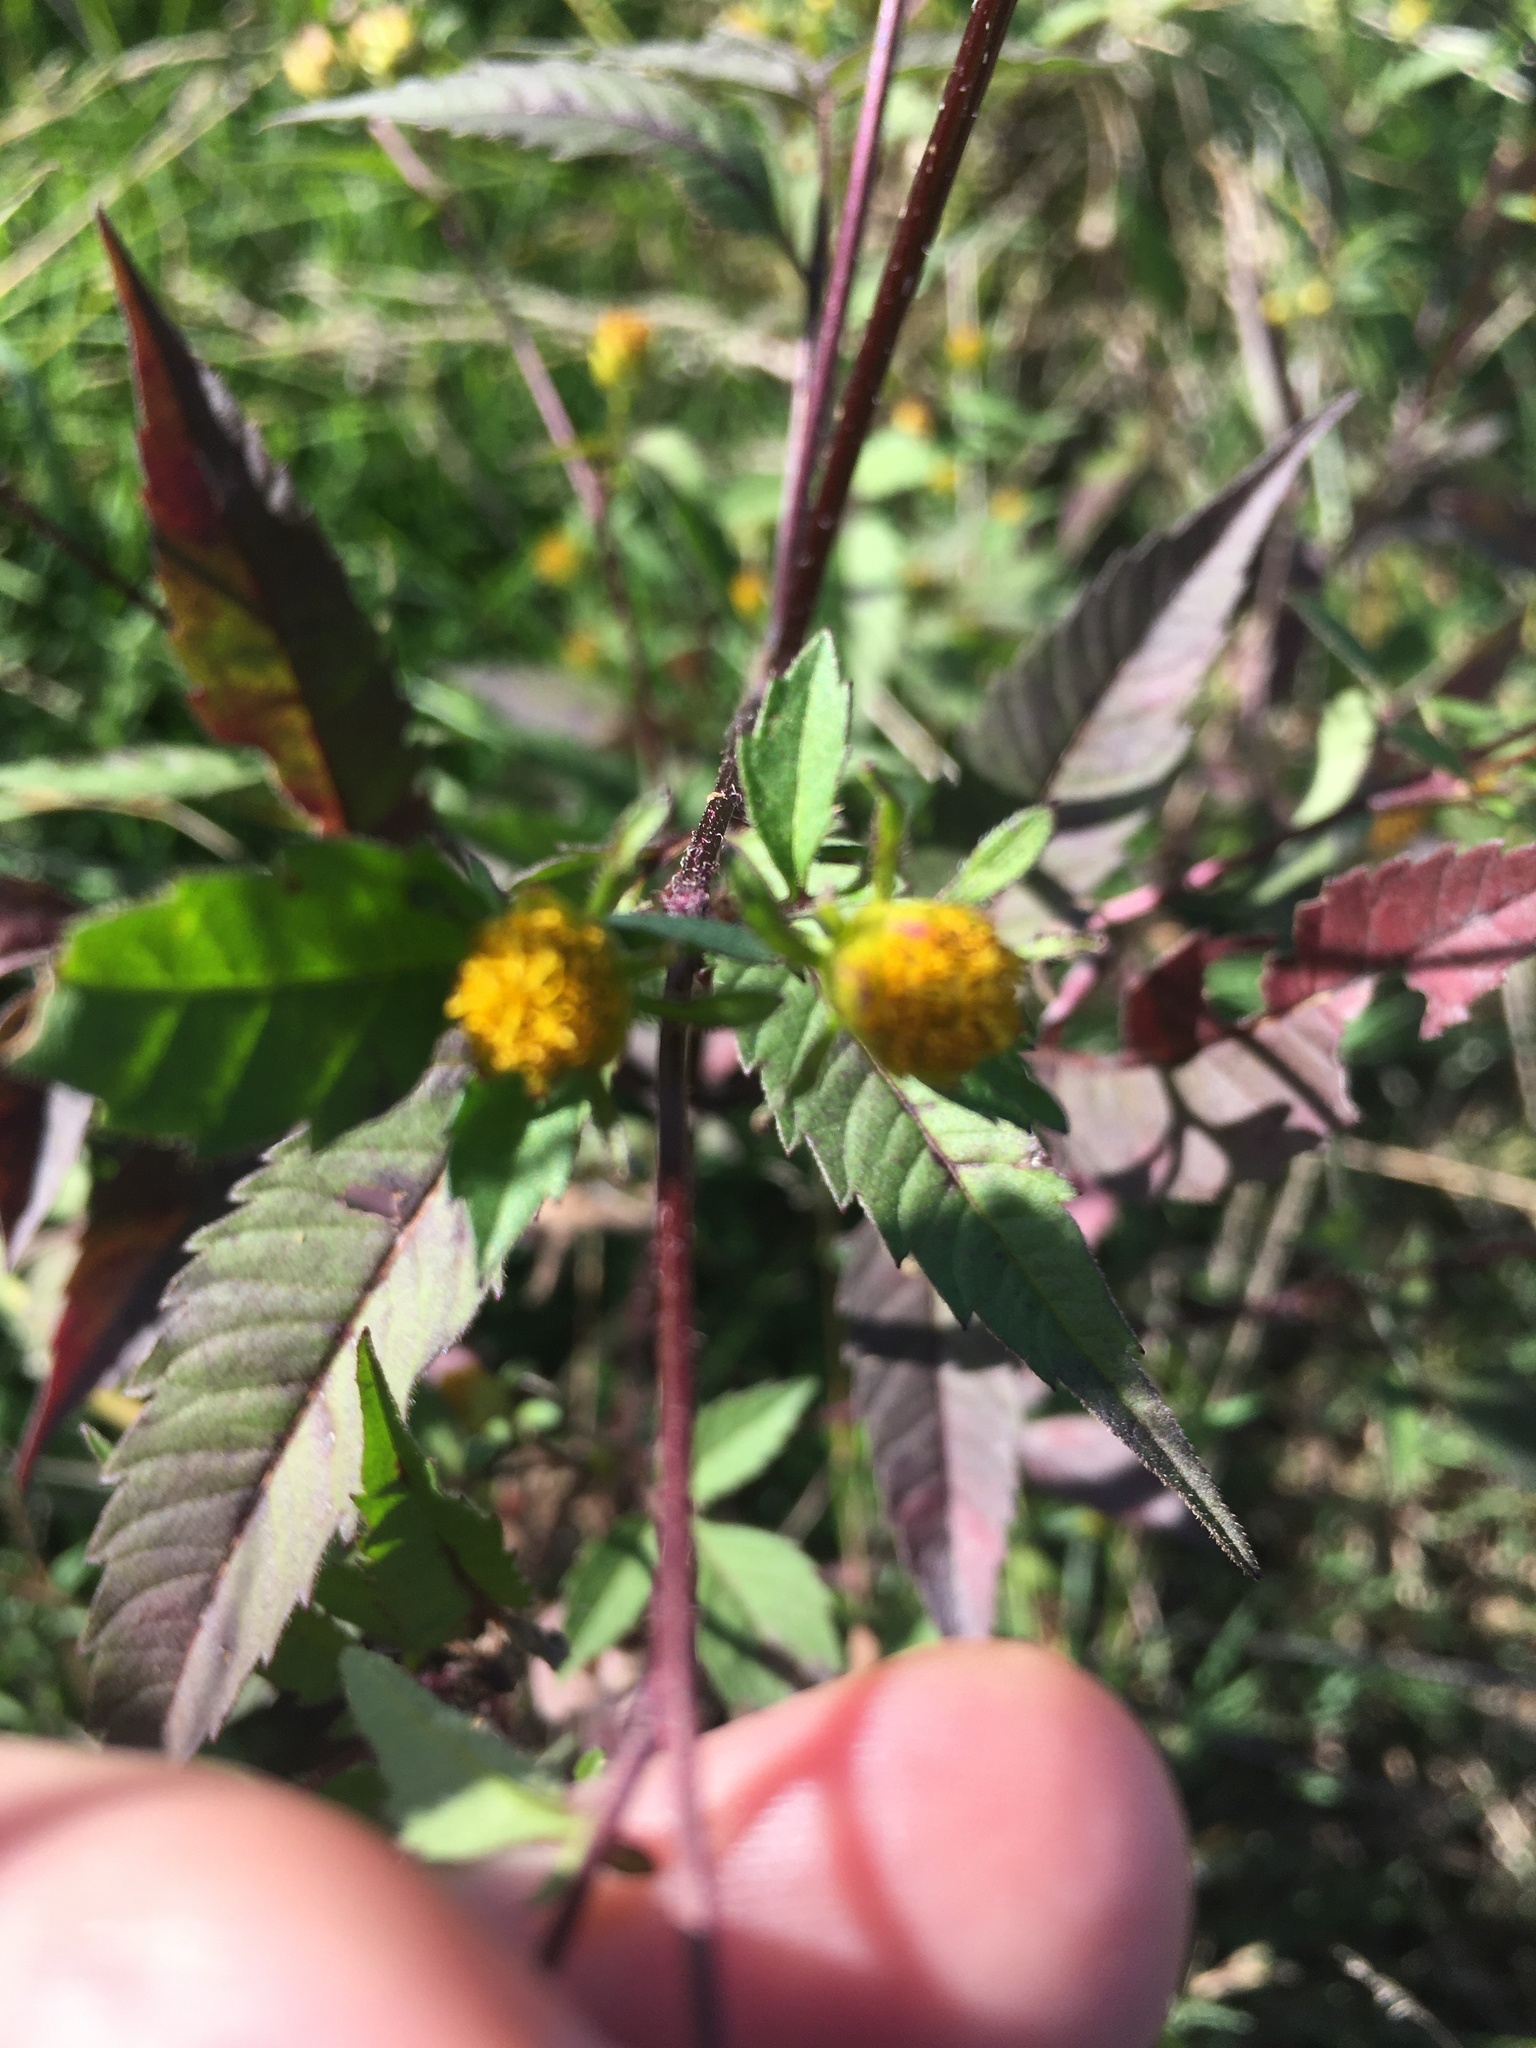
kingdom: Plantae
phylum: Tracheophyta
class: Magnoliopsida
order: Asterales
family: Asteraceae
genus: Bidens
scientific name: Bidens frondosa
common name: Beggarticks
